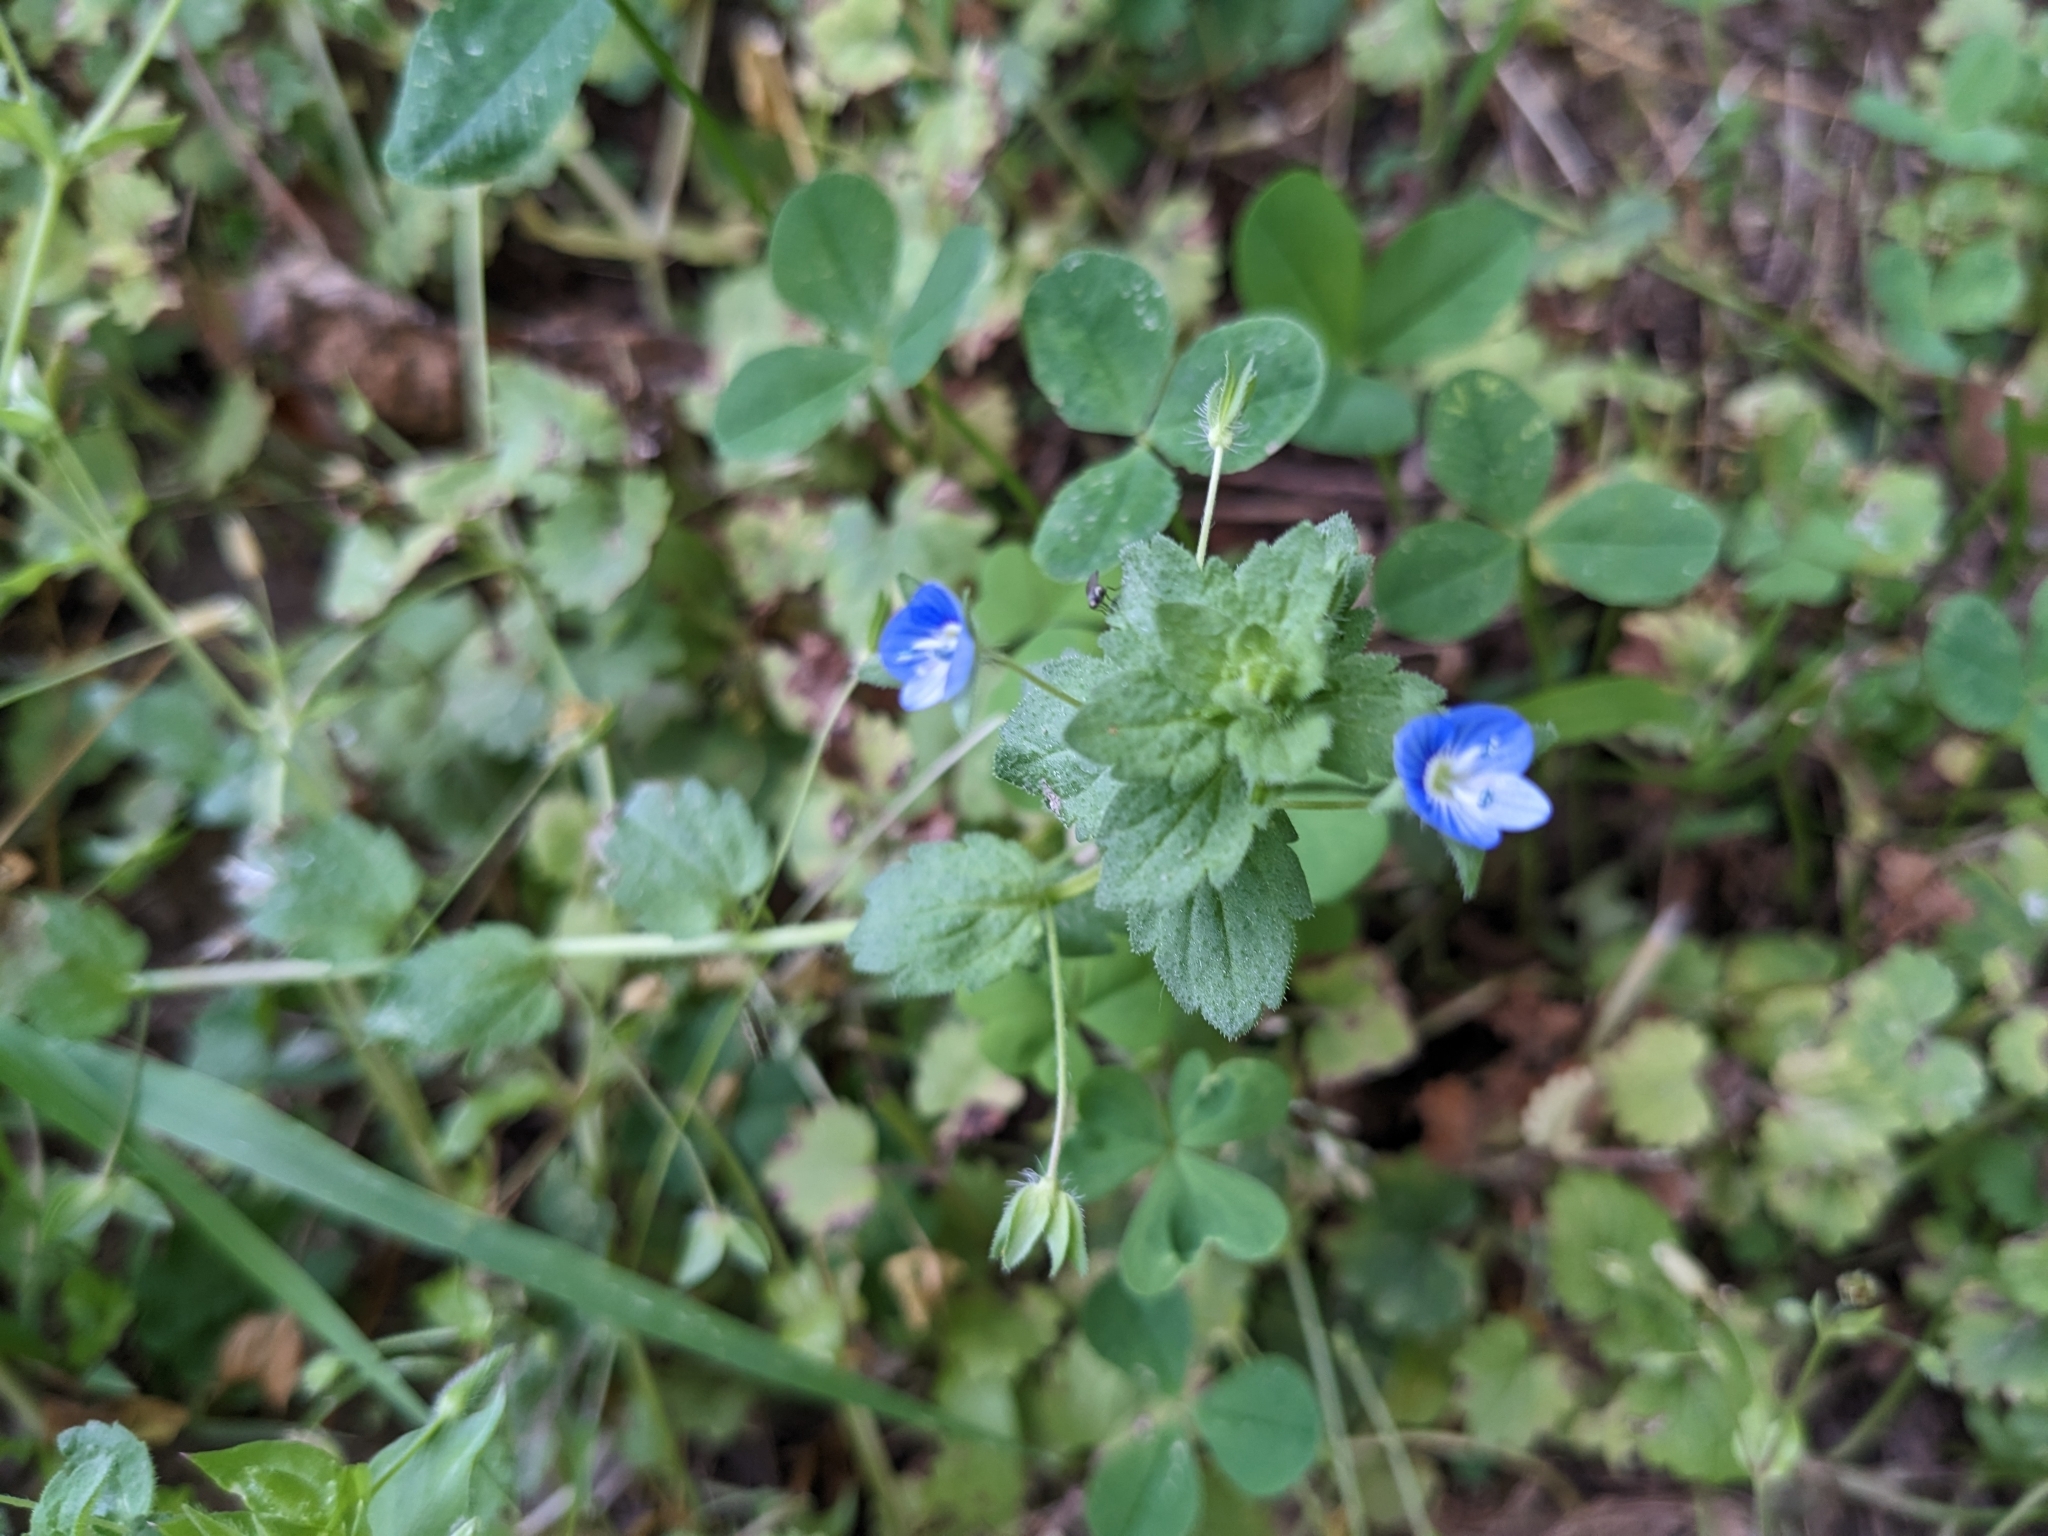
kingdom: Plantae
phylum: Tracheophyta
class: Magnoliopsida
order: Lamiales
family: Plantaginaceae
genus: Veronica
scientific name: Veronica persica
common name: Common field-speedwell
